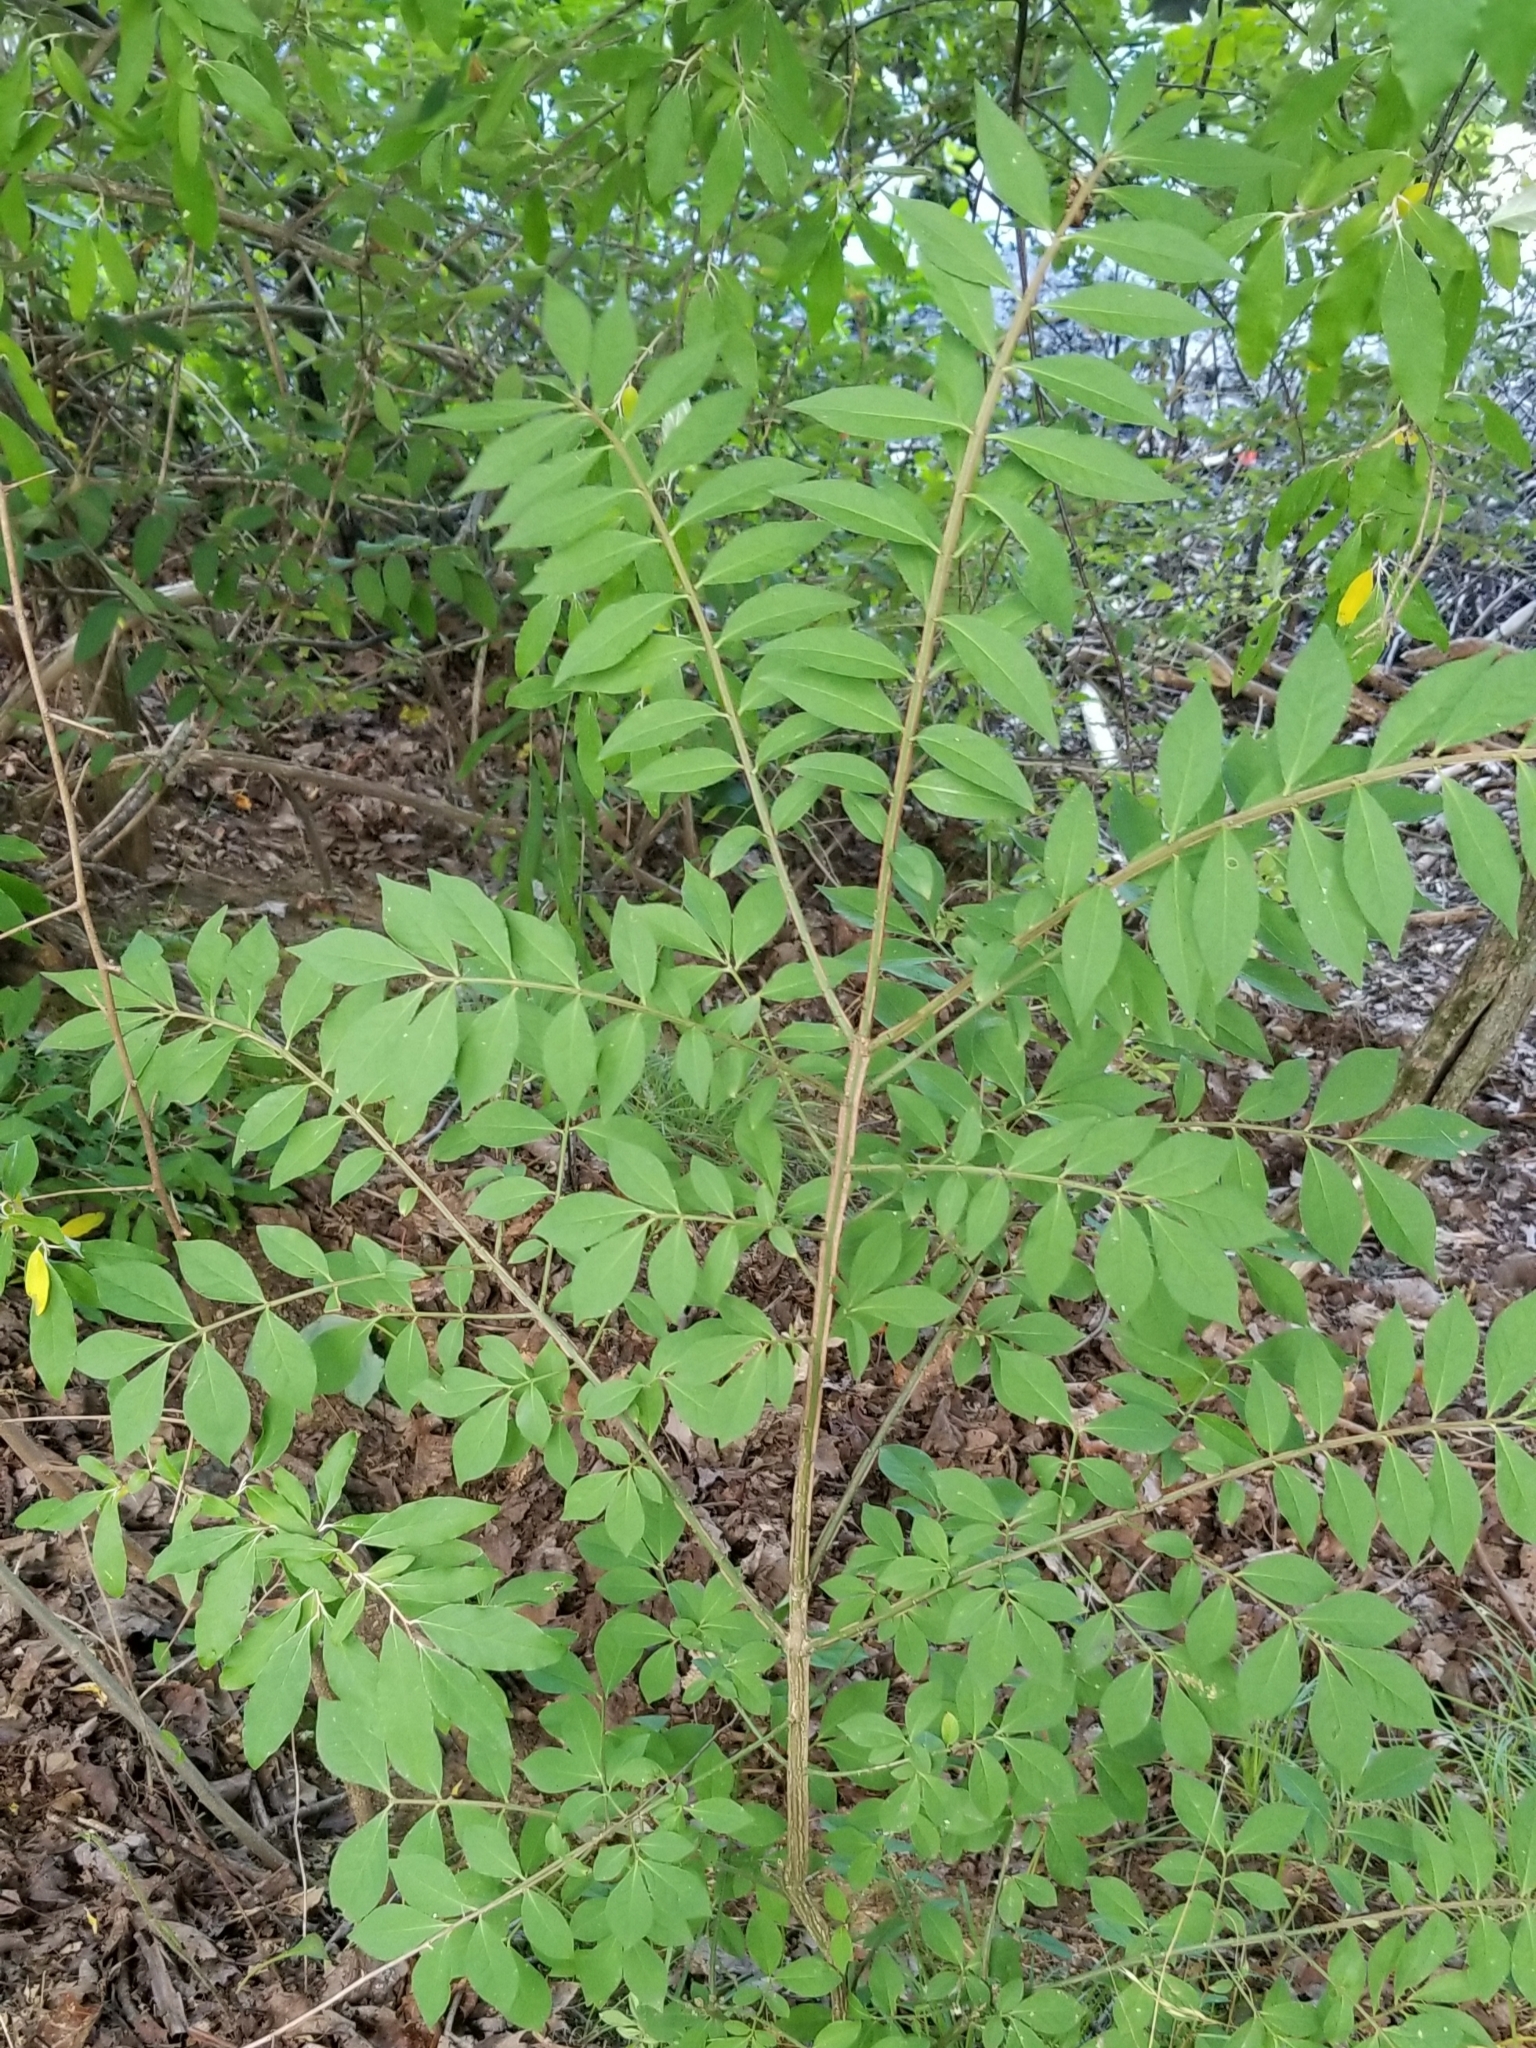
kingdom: Plantae
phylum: Tracheophyta
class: Magnoliopsida
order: Celastrales
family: Celastraceae
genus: Euonymus
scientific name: Euonymus alatus
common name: Winged euonymus
